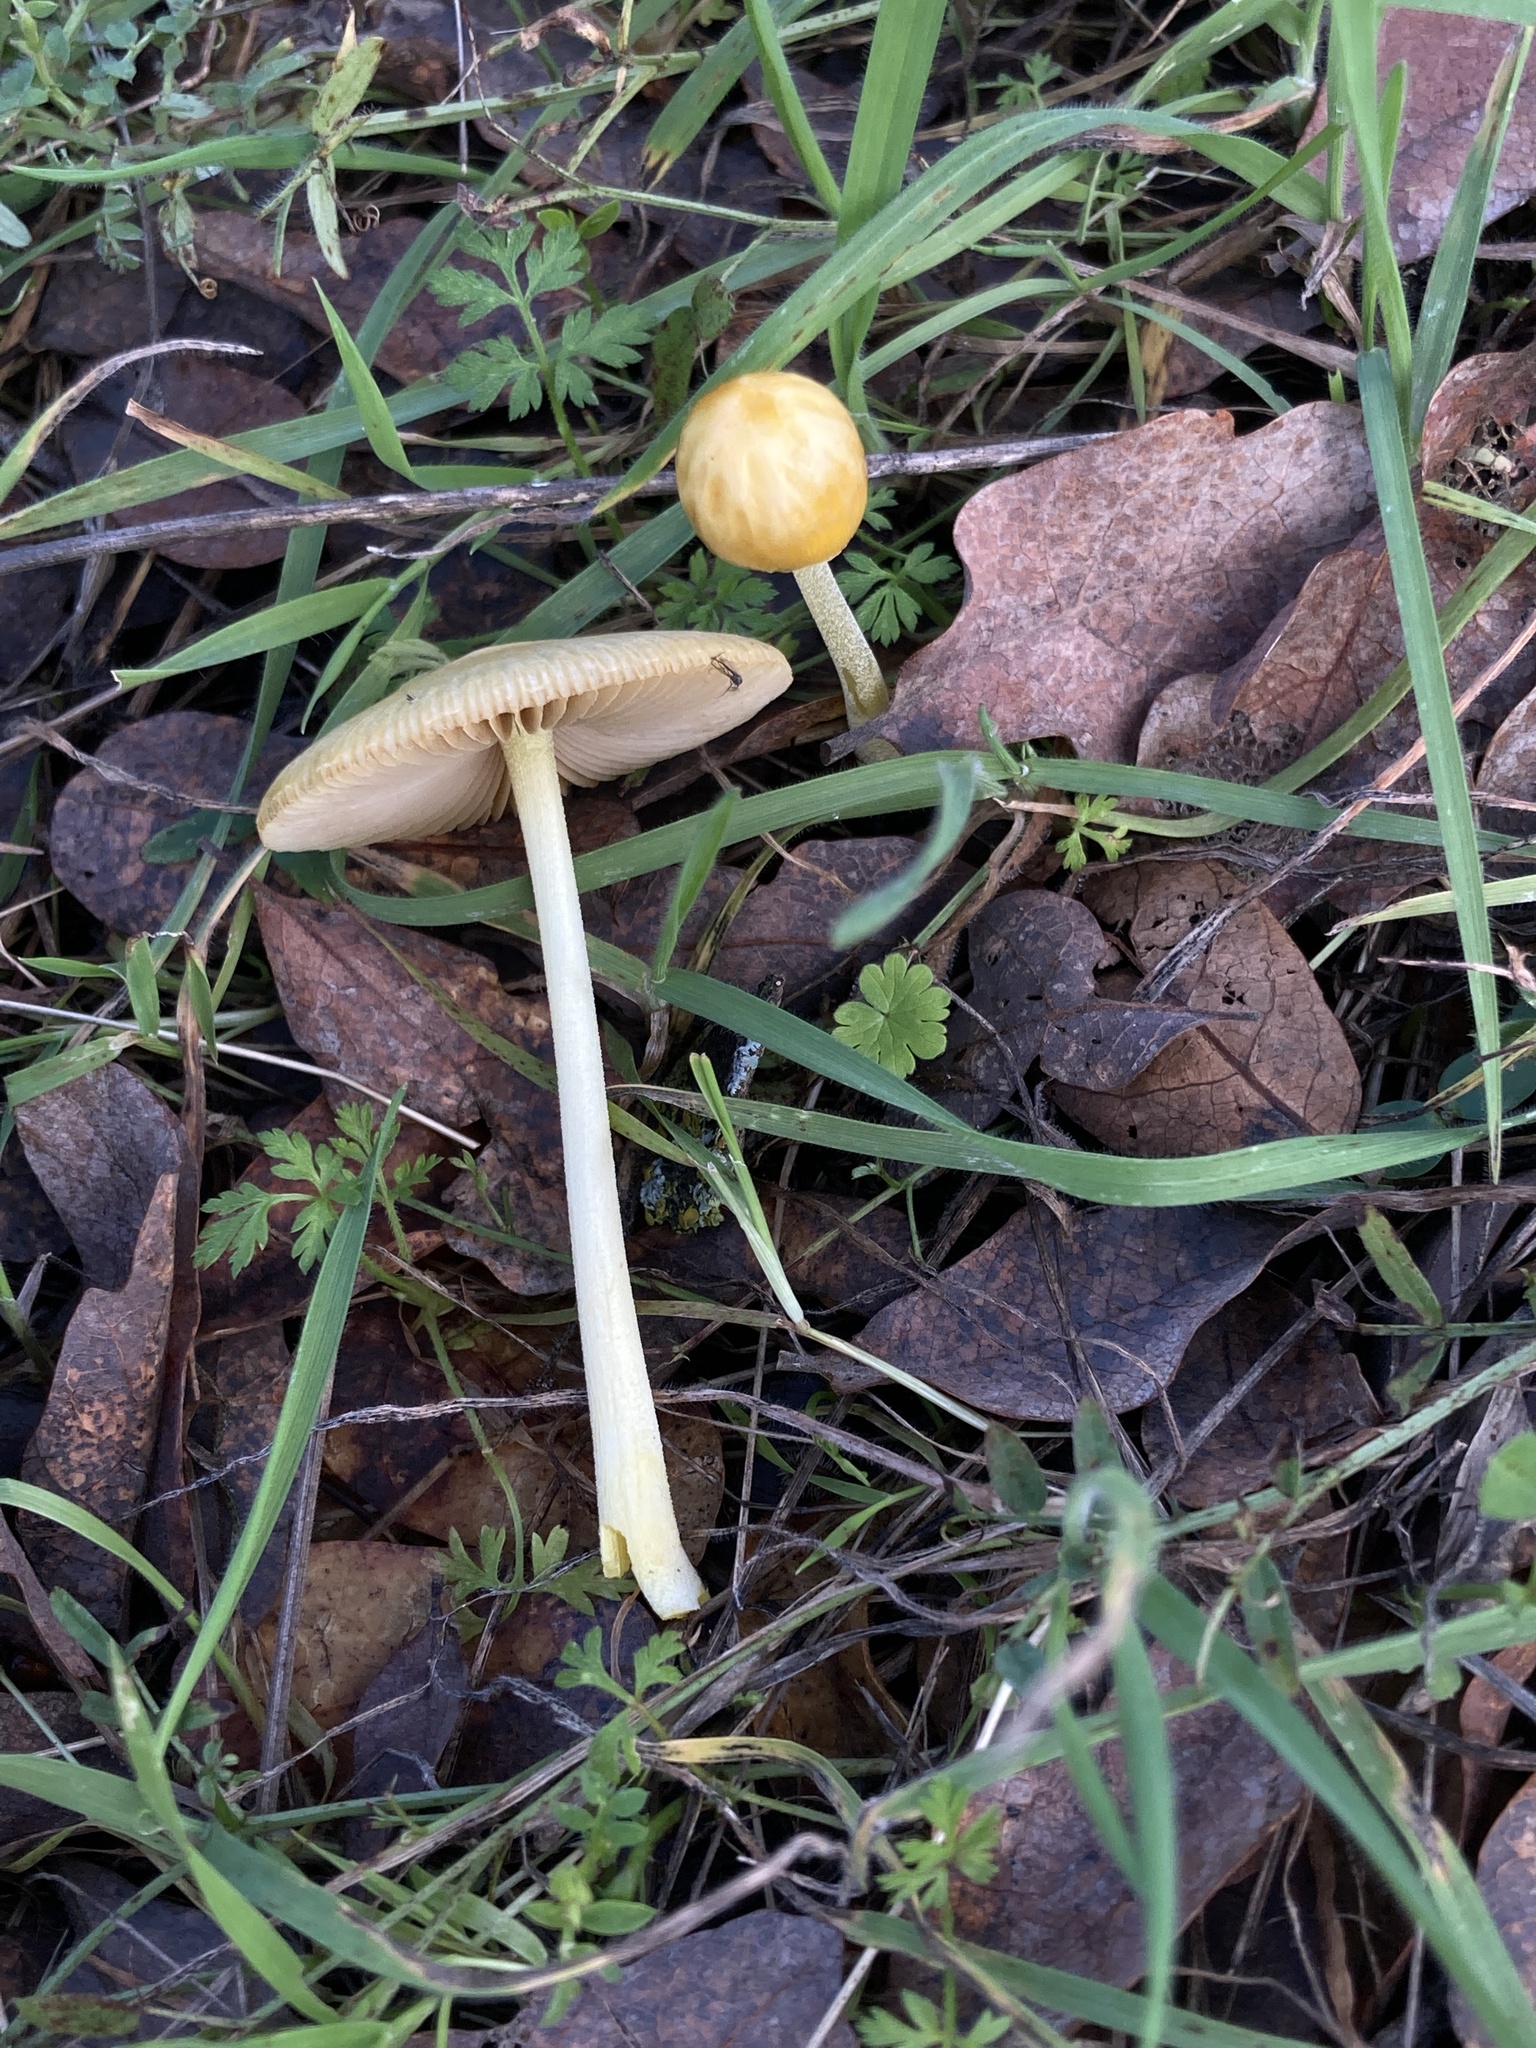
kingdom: Fungi
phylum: Basidiomycota
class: Agaricomycetes
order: Agaricales
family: Bolbitiaceae
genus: Bolbitius
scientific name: Bolbitius titubans
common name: Yellow fieldcap
